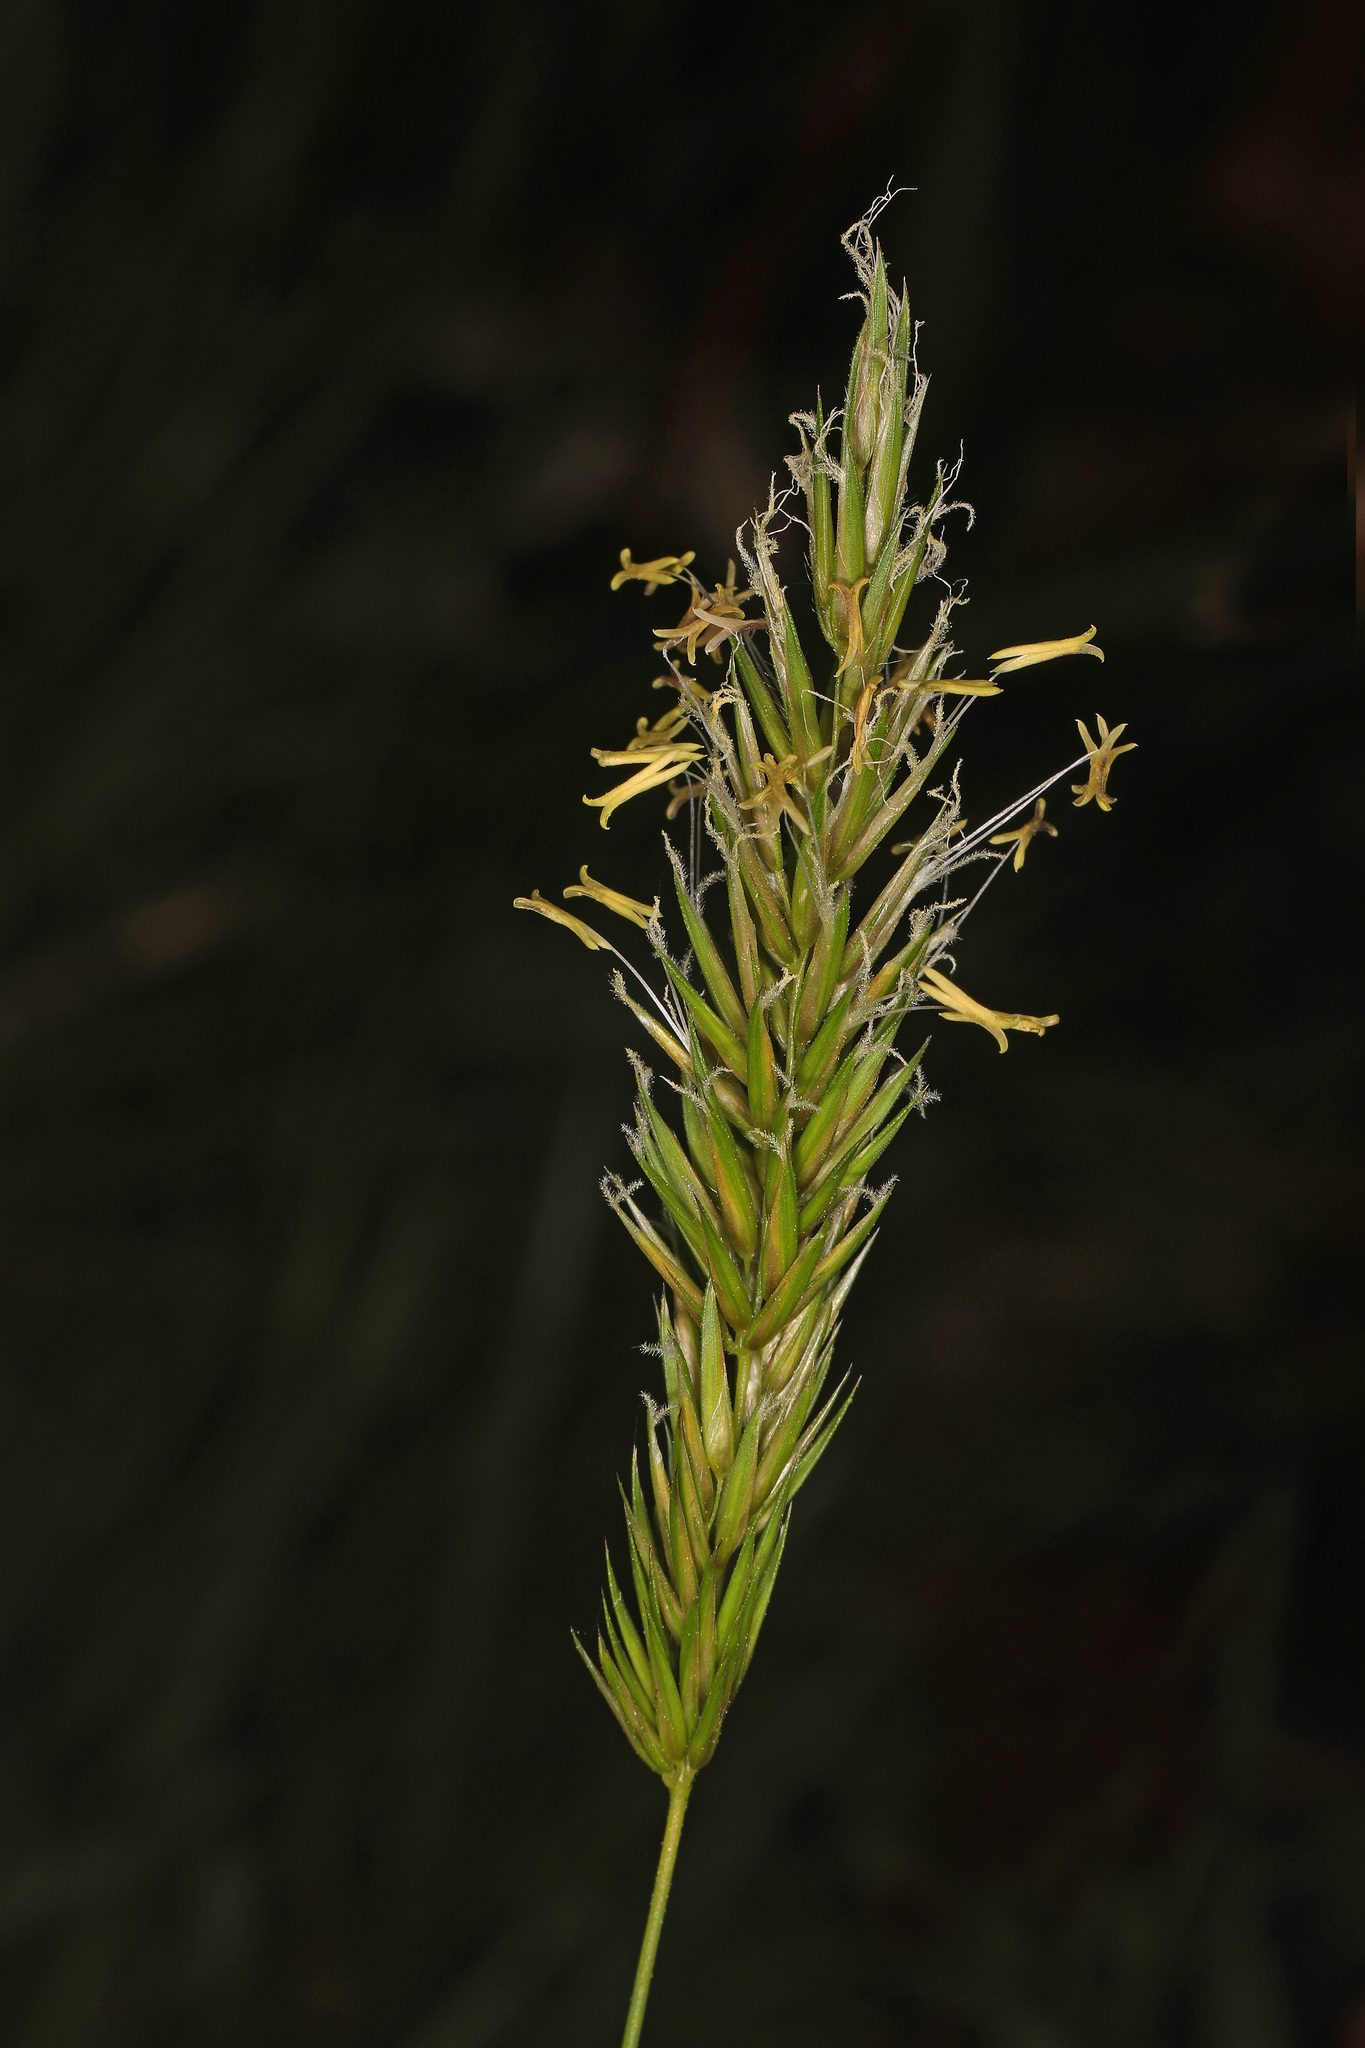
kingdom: Plantae
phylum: Tracheophyta
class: Liliopsida
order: Poales
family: Poaceae
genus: Anthoxanthum
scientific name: Anthoxanthum odoratum
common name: Sweet vernalgrass
